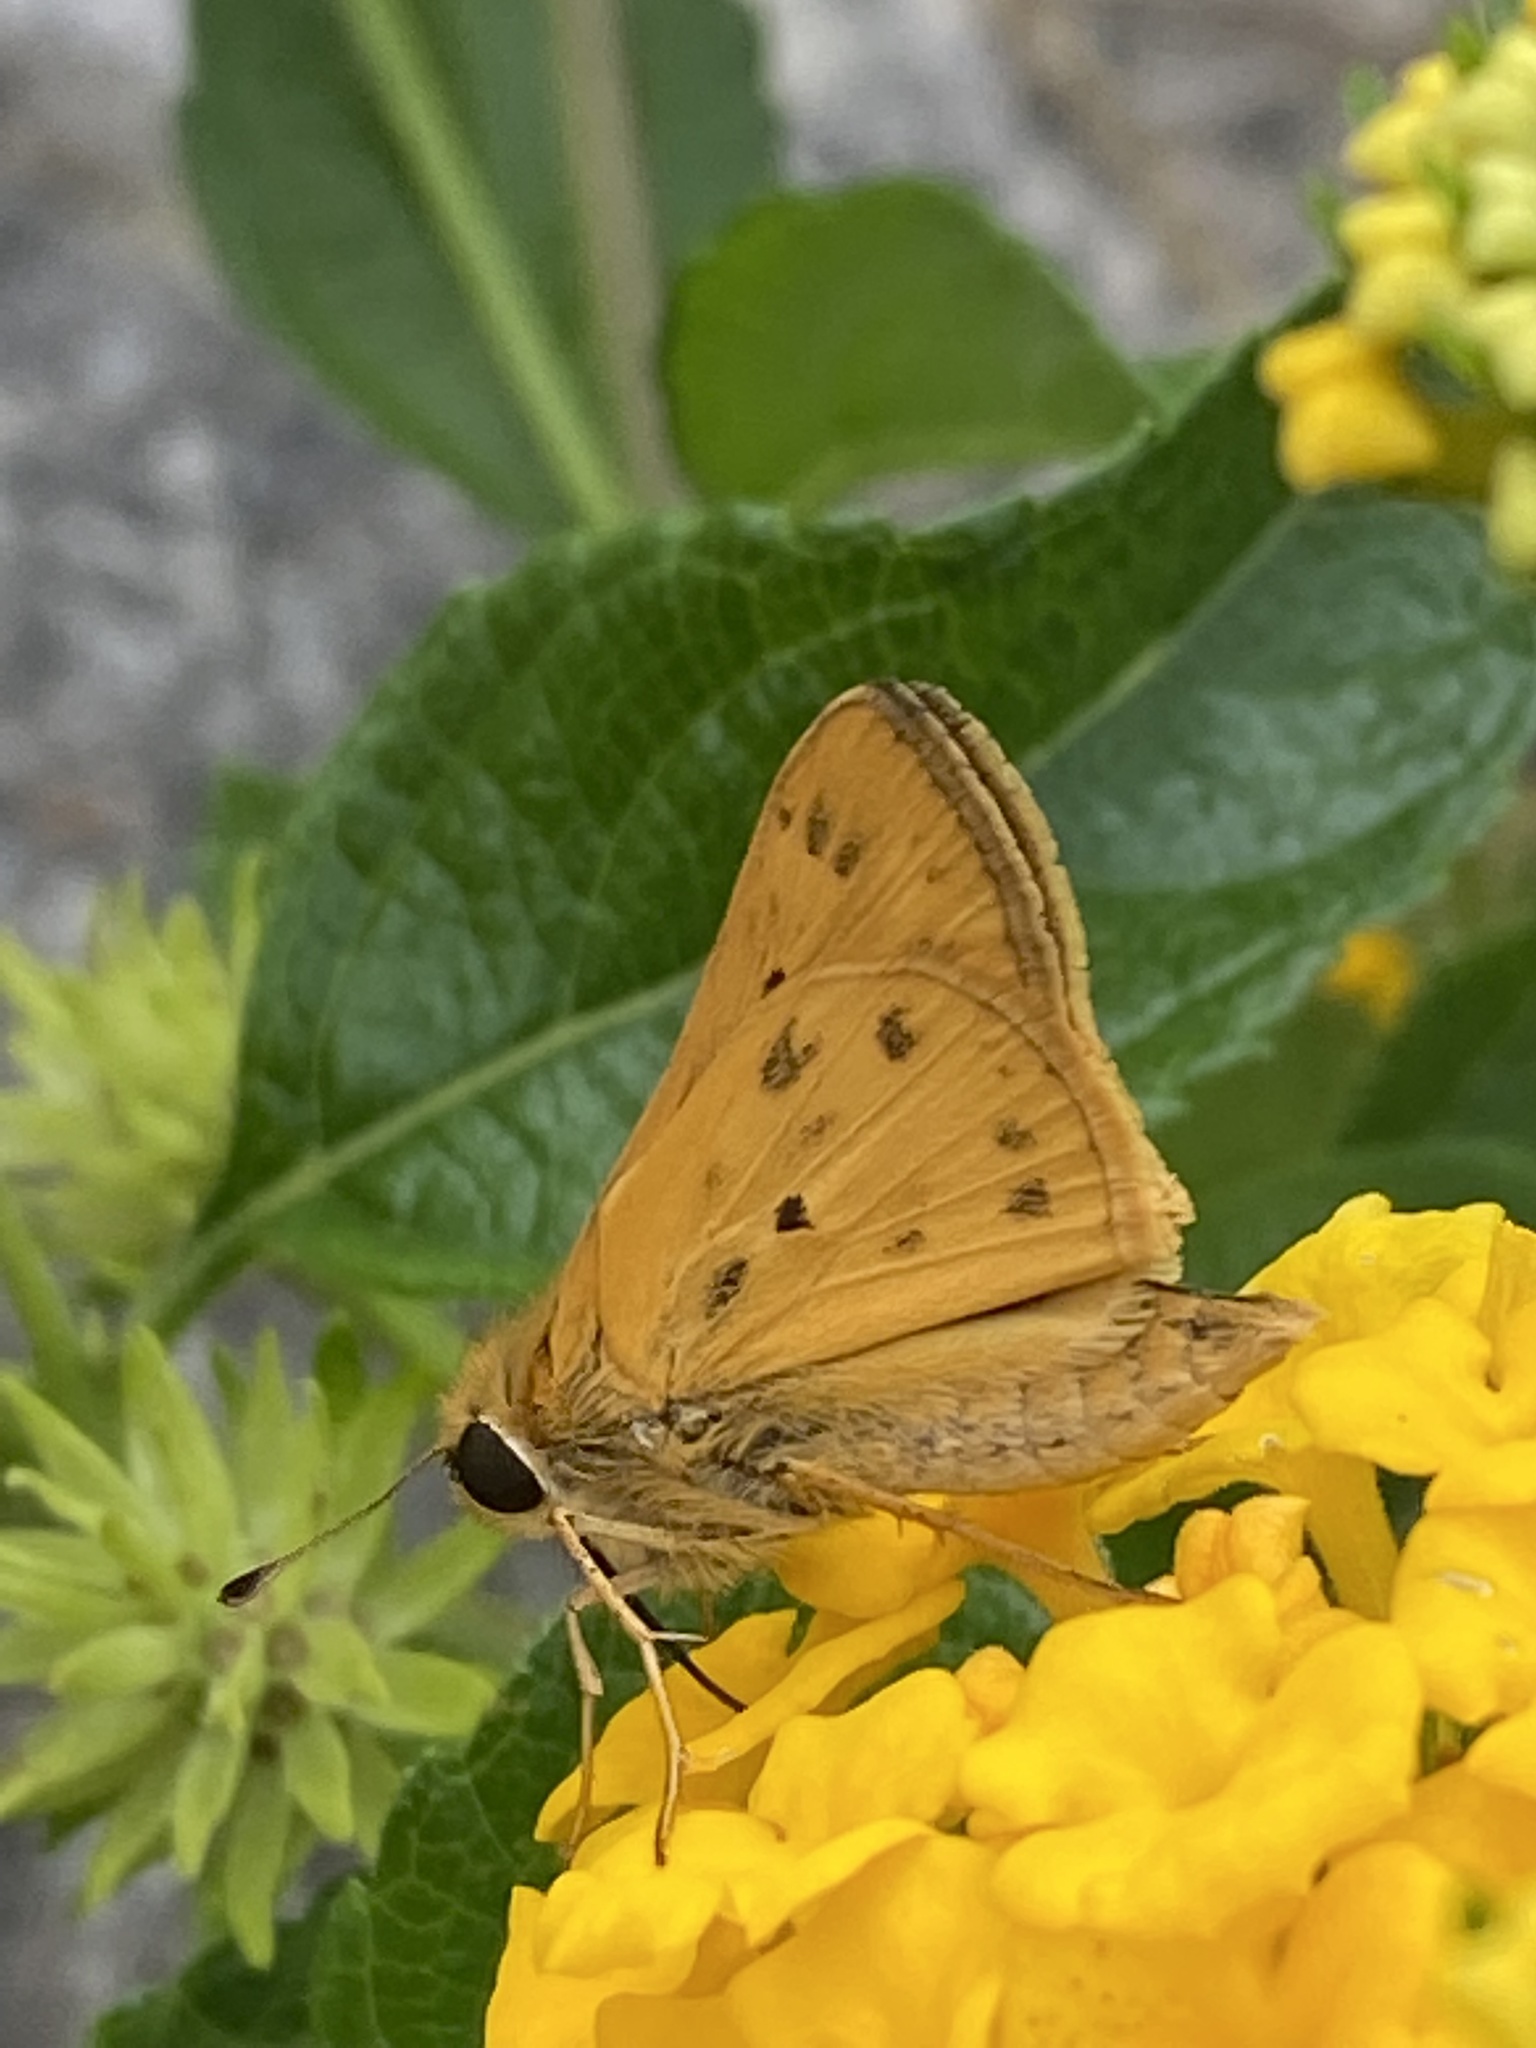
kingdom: Animalia
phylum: Arthropoda
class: Insecta
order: Lepidoptera
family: Hesperiidae
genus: Hylephila
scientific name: Hylephila phyleus
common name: Fiery skipper
